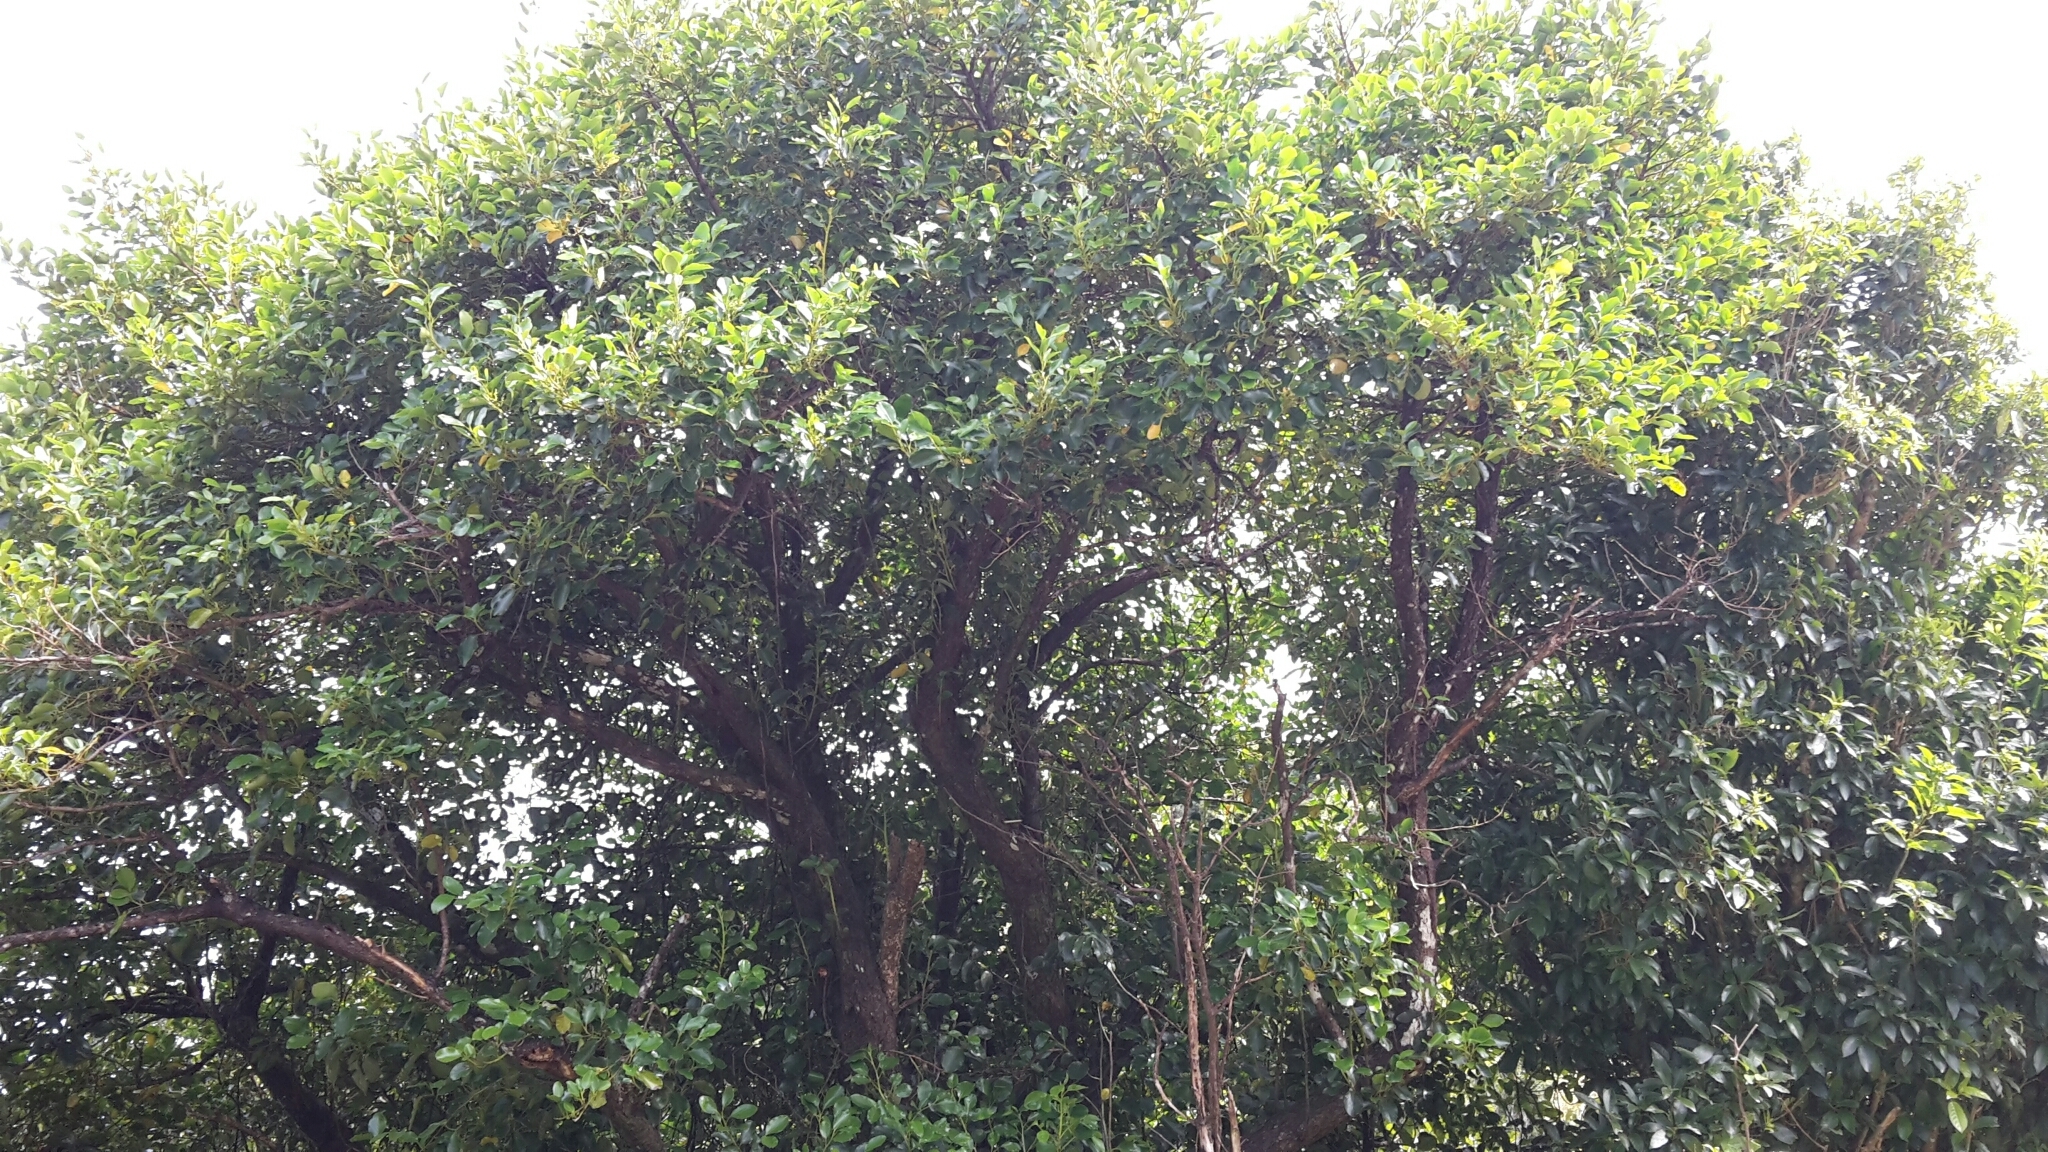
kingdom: Plantae
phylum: Tracheophyta
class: Magnoliopsida
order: Apiales
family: Griseliniaceae
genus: Griselinia
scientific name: Griselinia littoralis
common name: New zealand broadleaf
